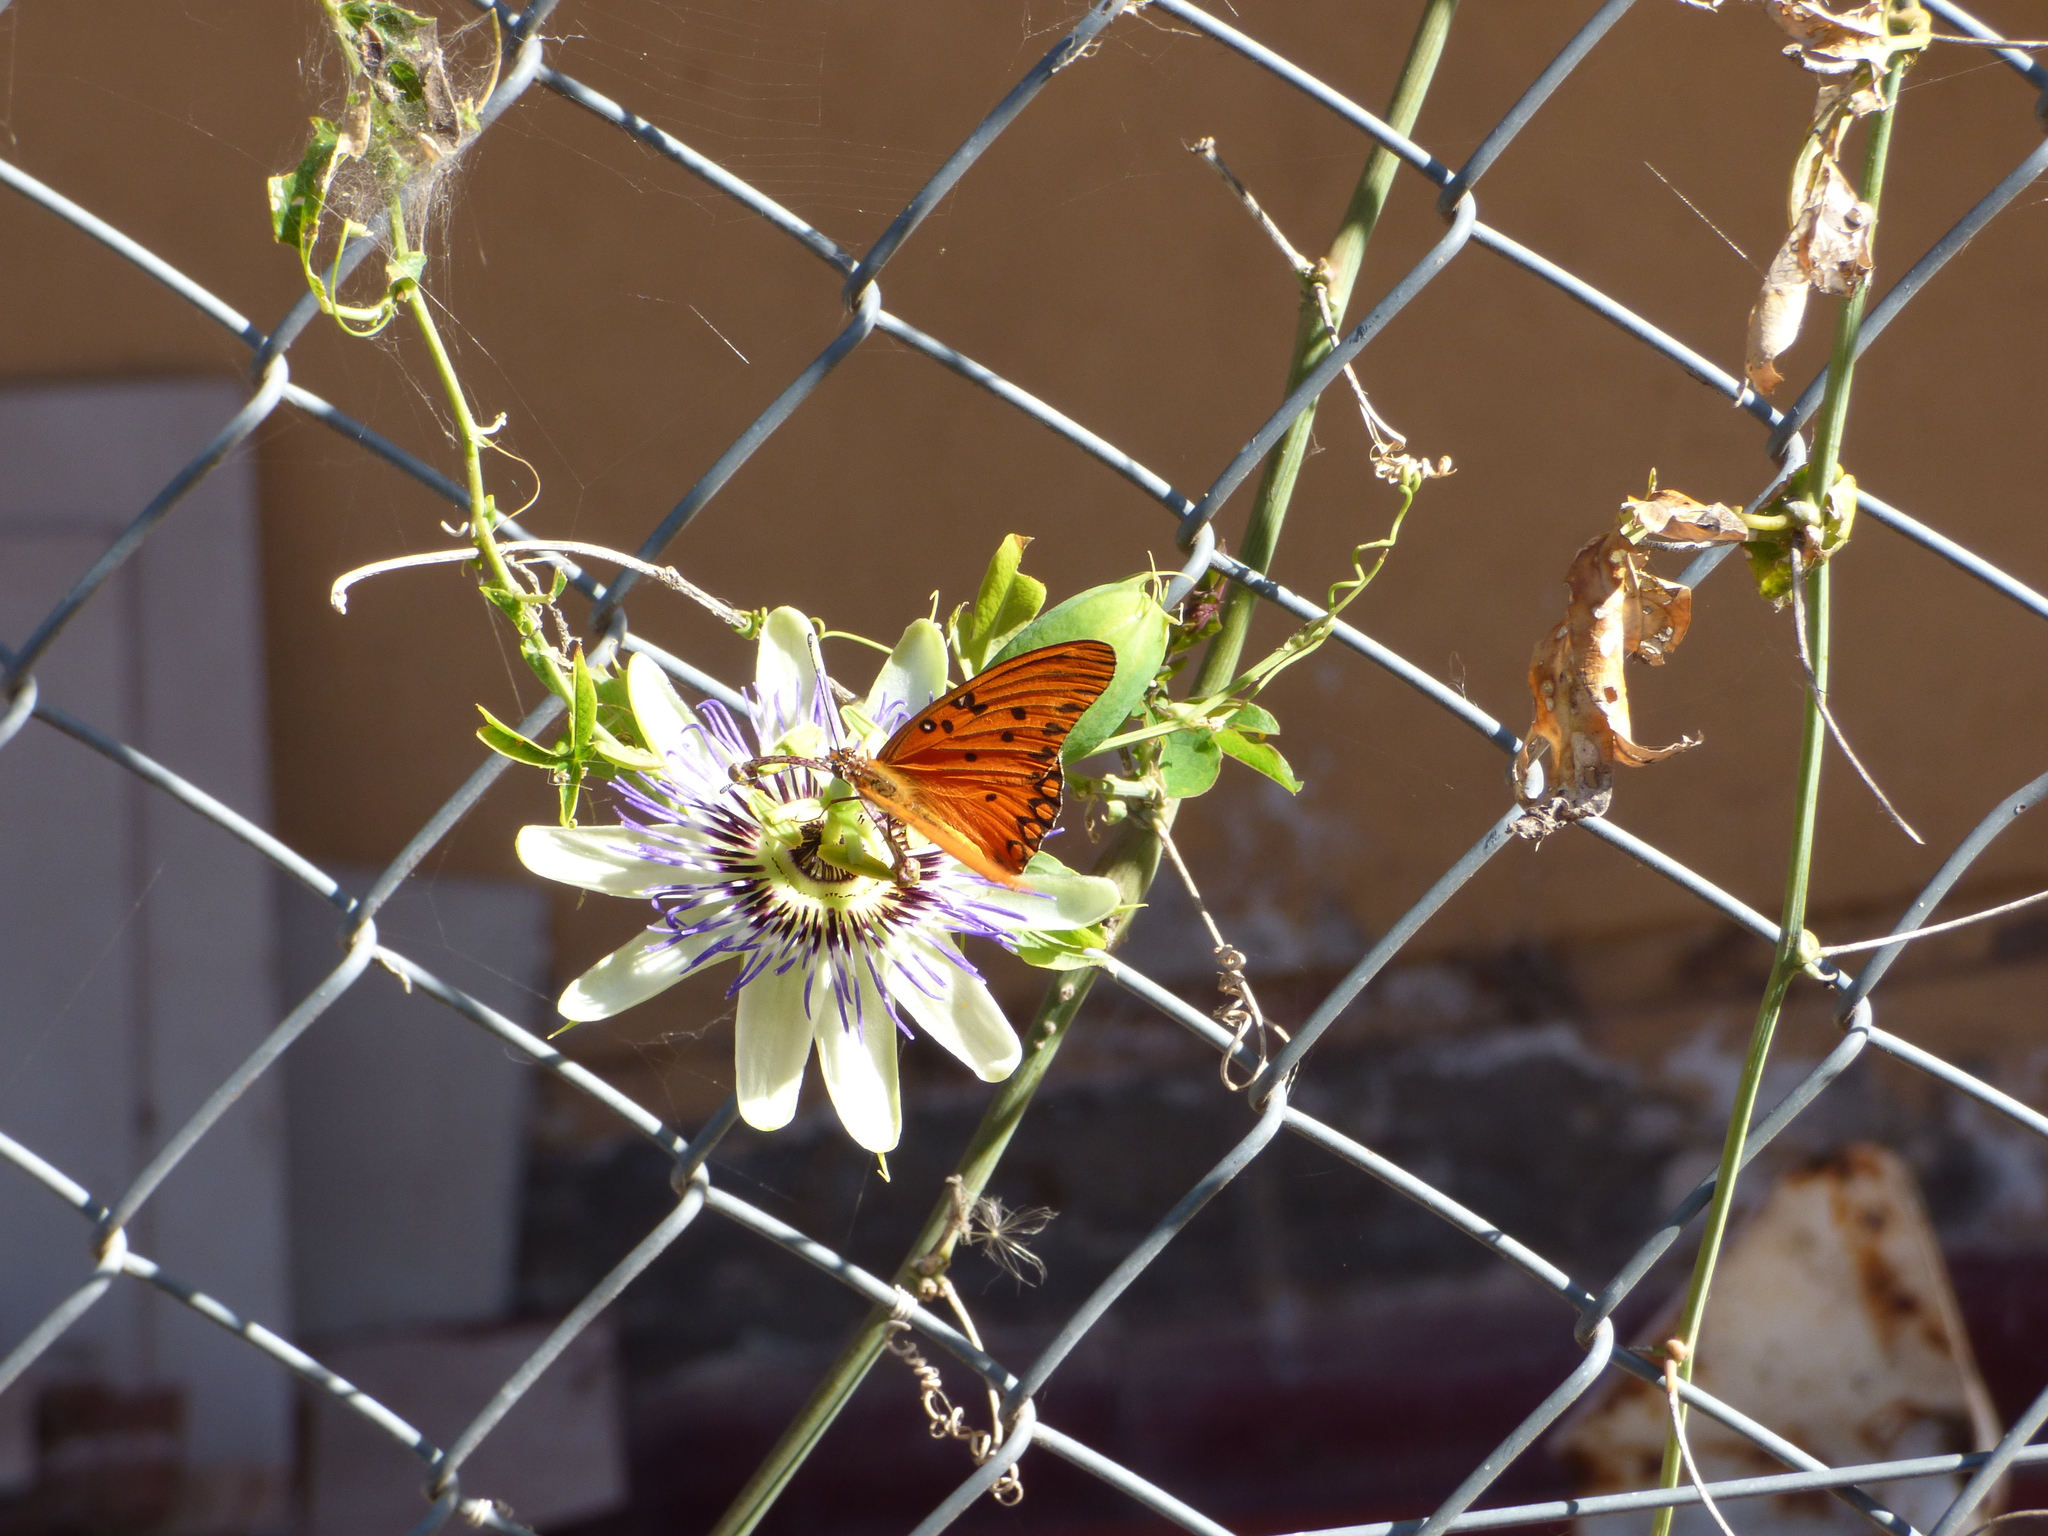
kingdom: Animalia
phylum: Arthropoda
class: Insecta
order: Lepidoptera
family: Nymphalidae
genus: Dione
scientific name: Dione vanillae
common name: Gulf fritillary
